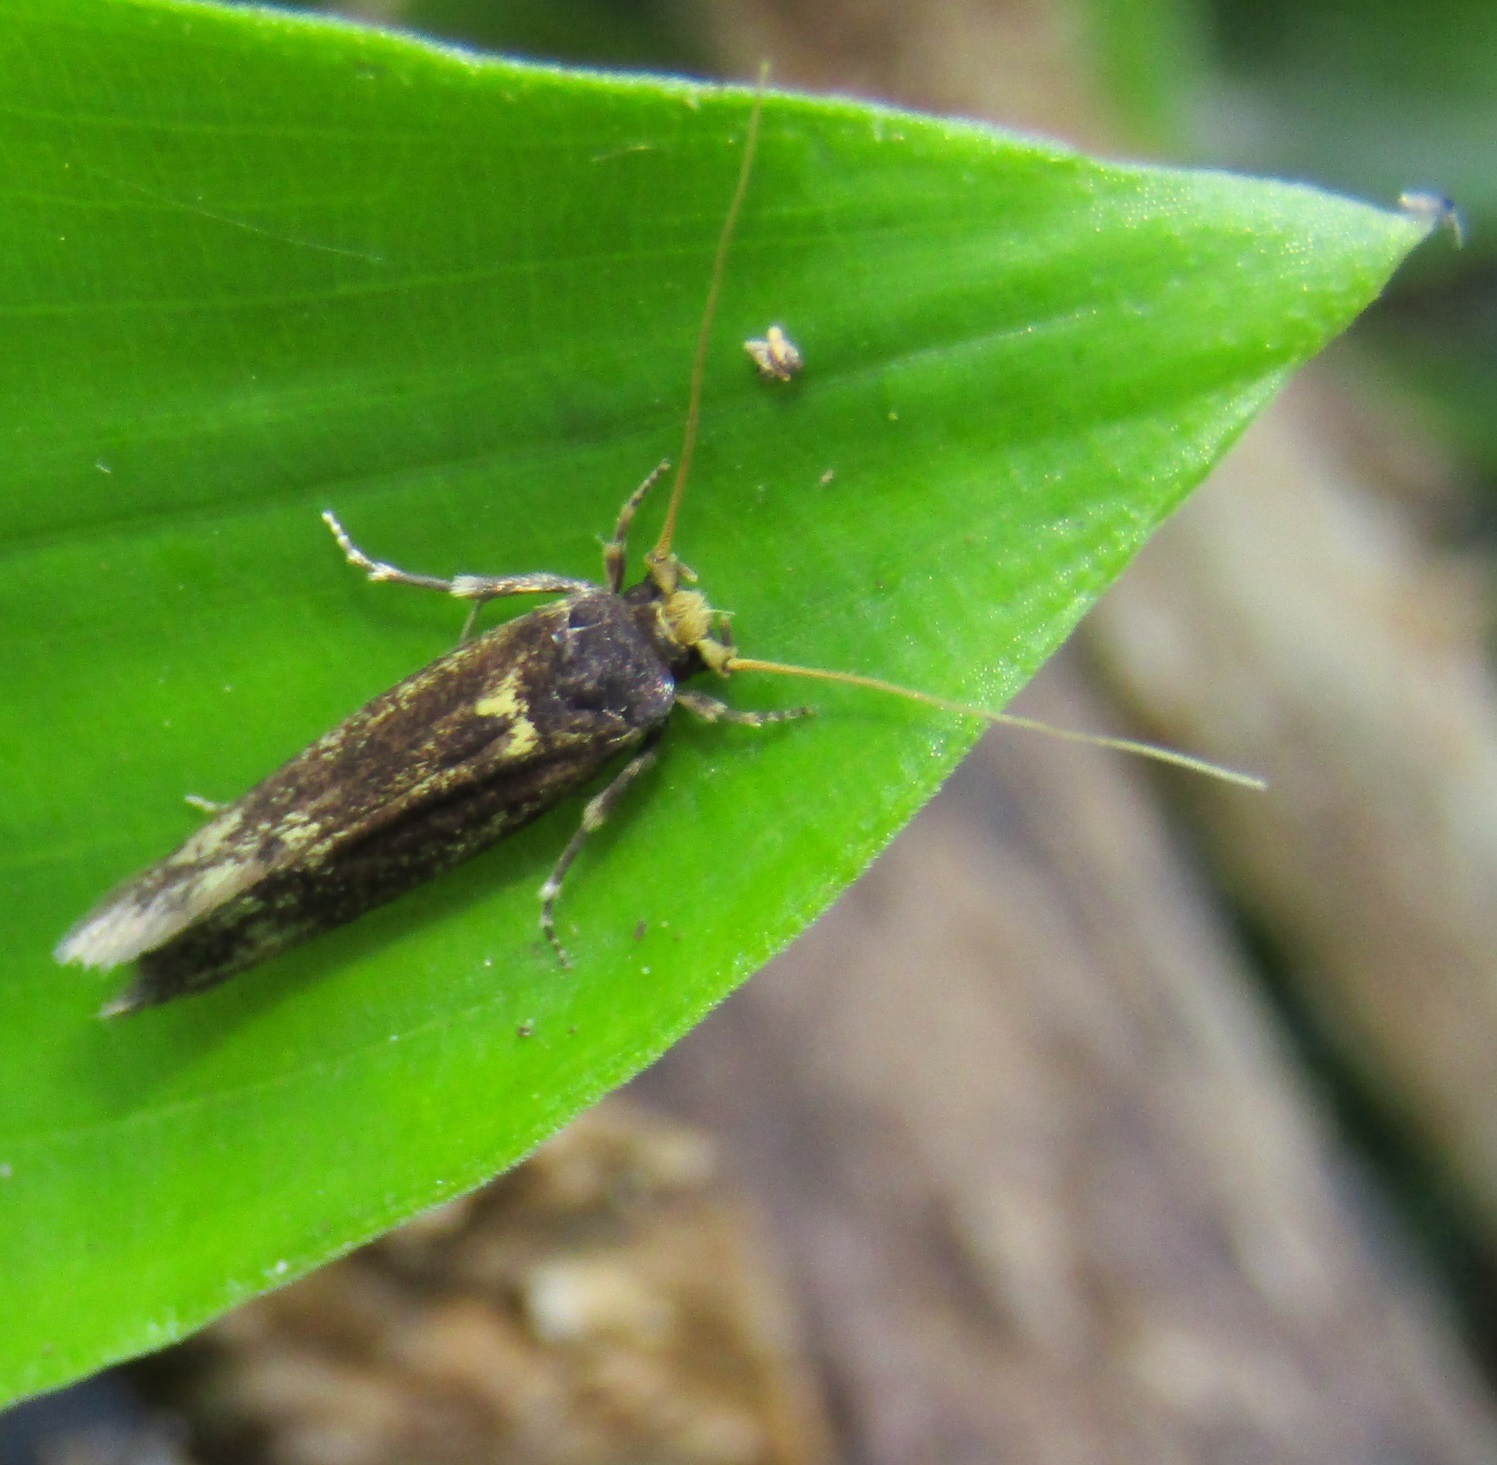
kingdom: Animalia
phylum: Arthropoda
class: Insecta
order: Lepidoptera
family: Tineidae
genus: Opogona
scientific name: Opogona omoscopa
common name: Moth
